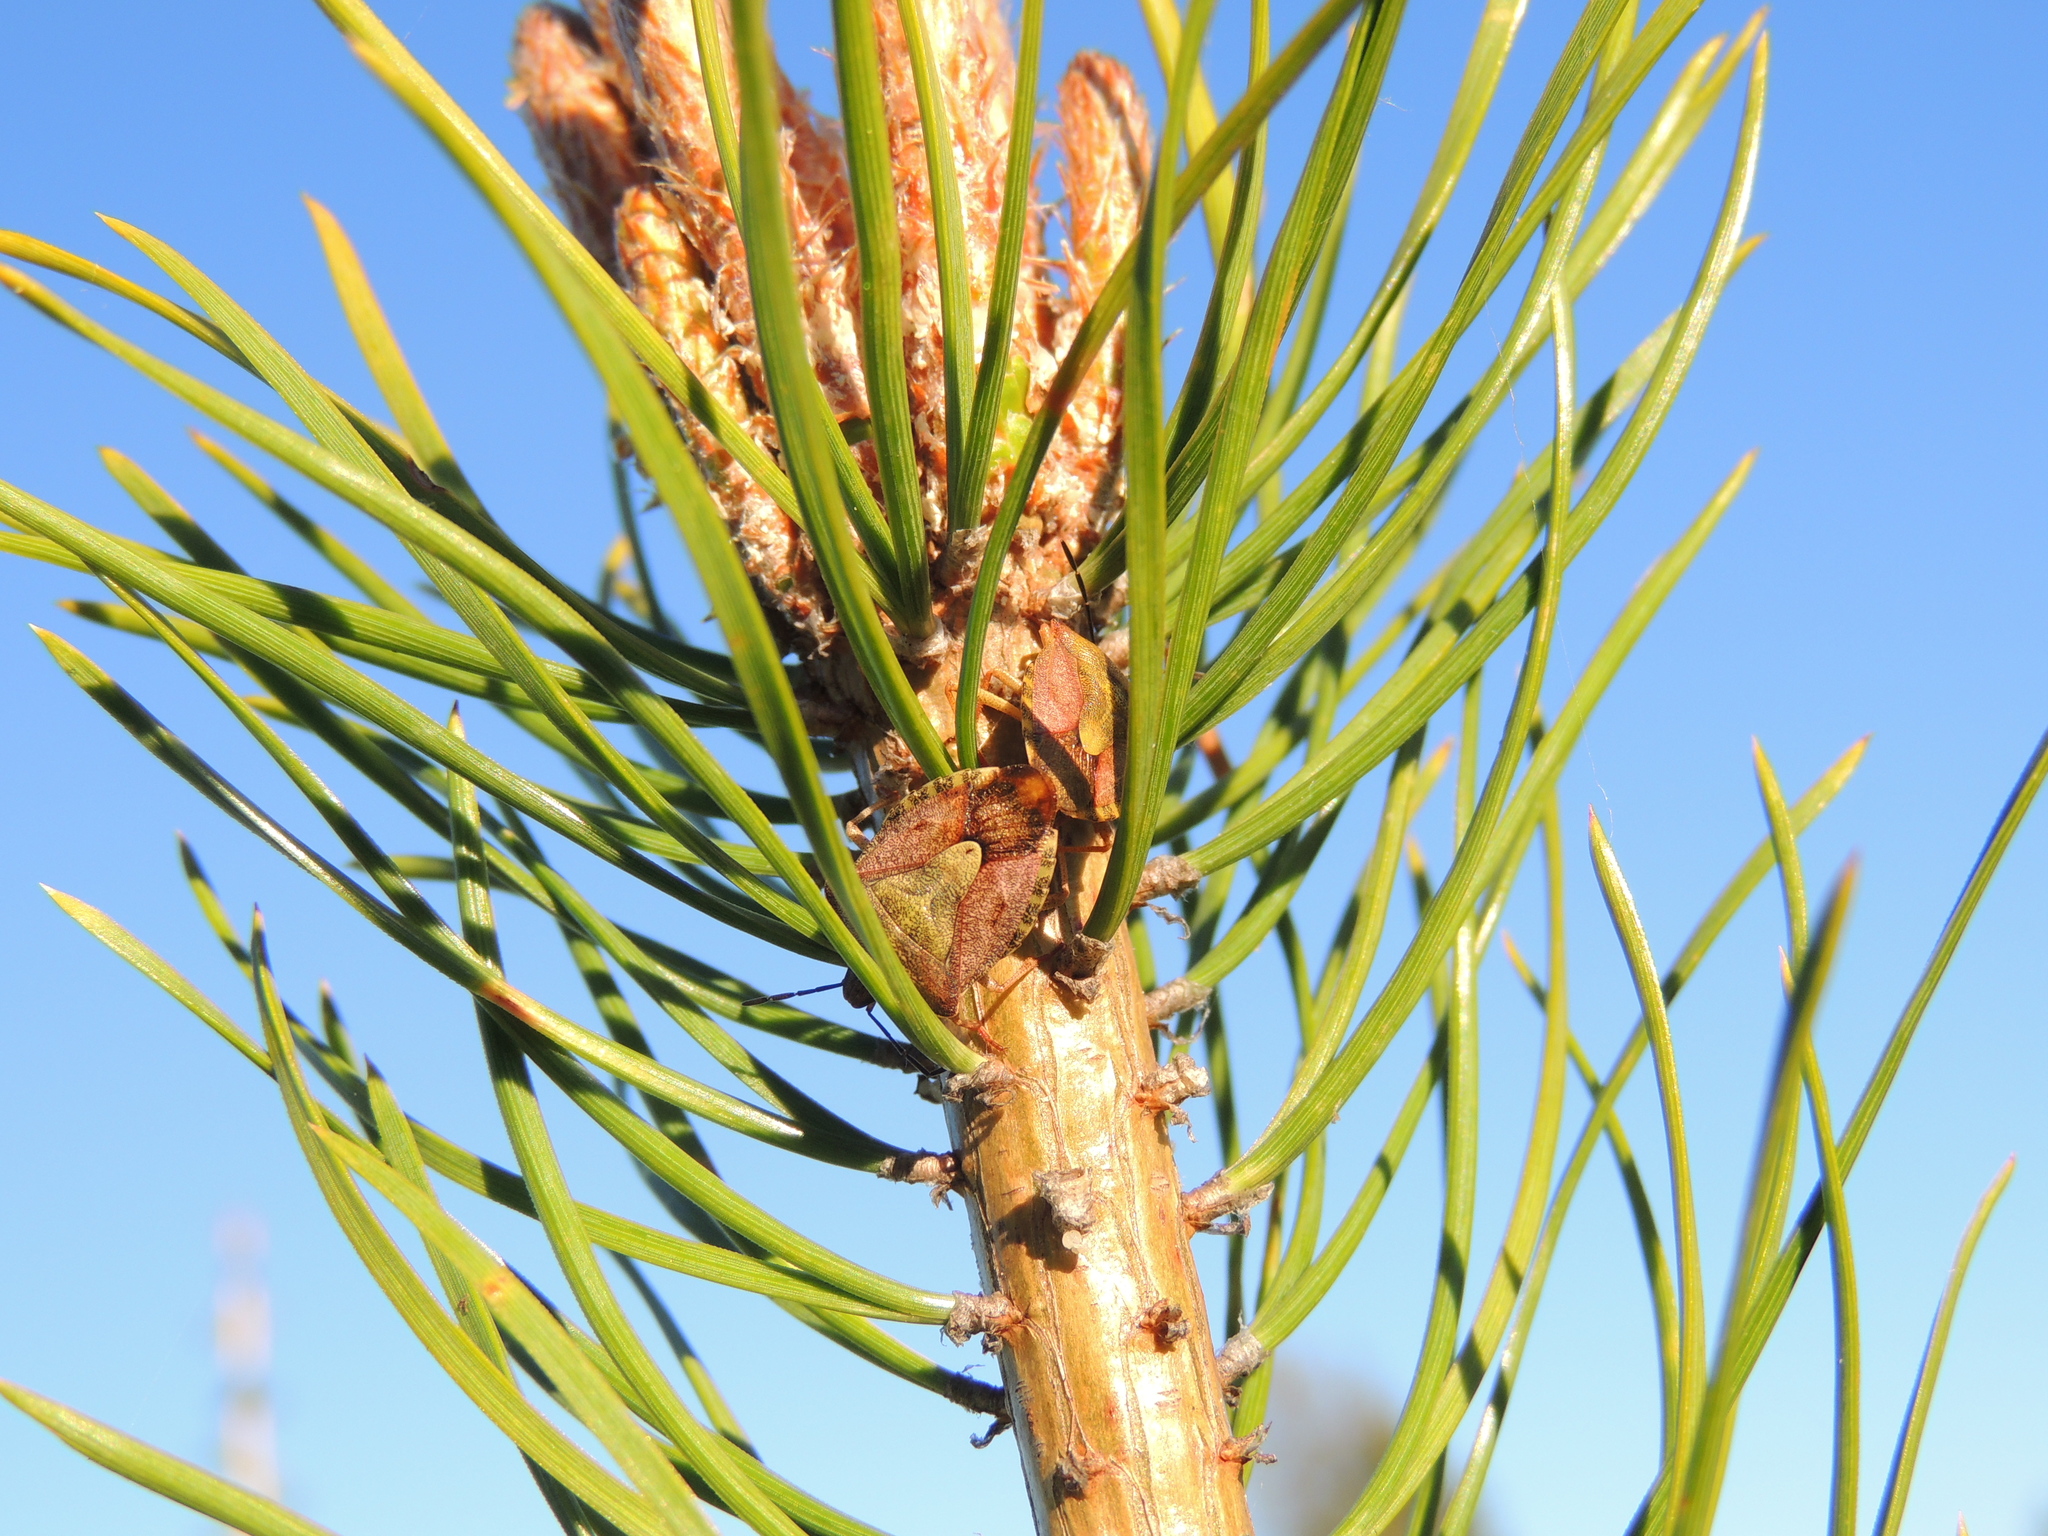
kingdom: Animalia
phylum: Arthropoda
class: Insecta
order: Hemiptera
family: Pentatomidae
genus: Carpocoris
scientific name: Carpocoris purpureipennis
